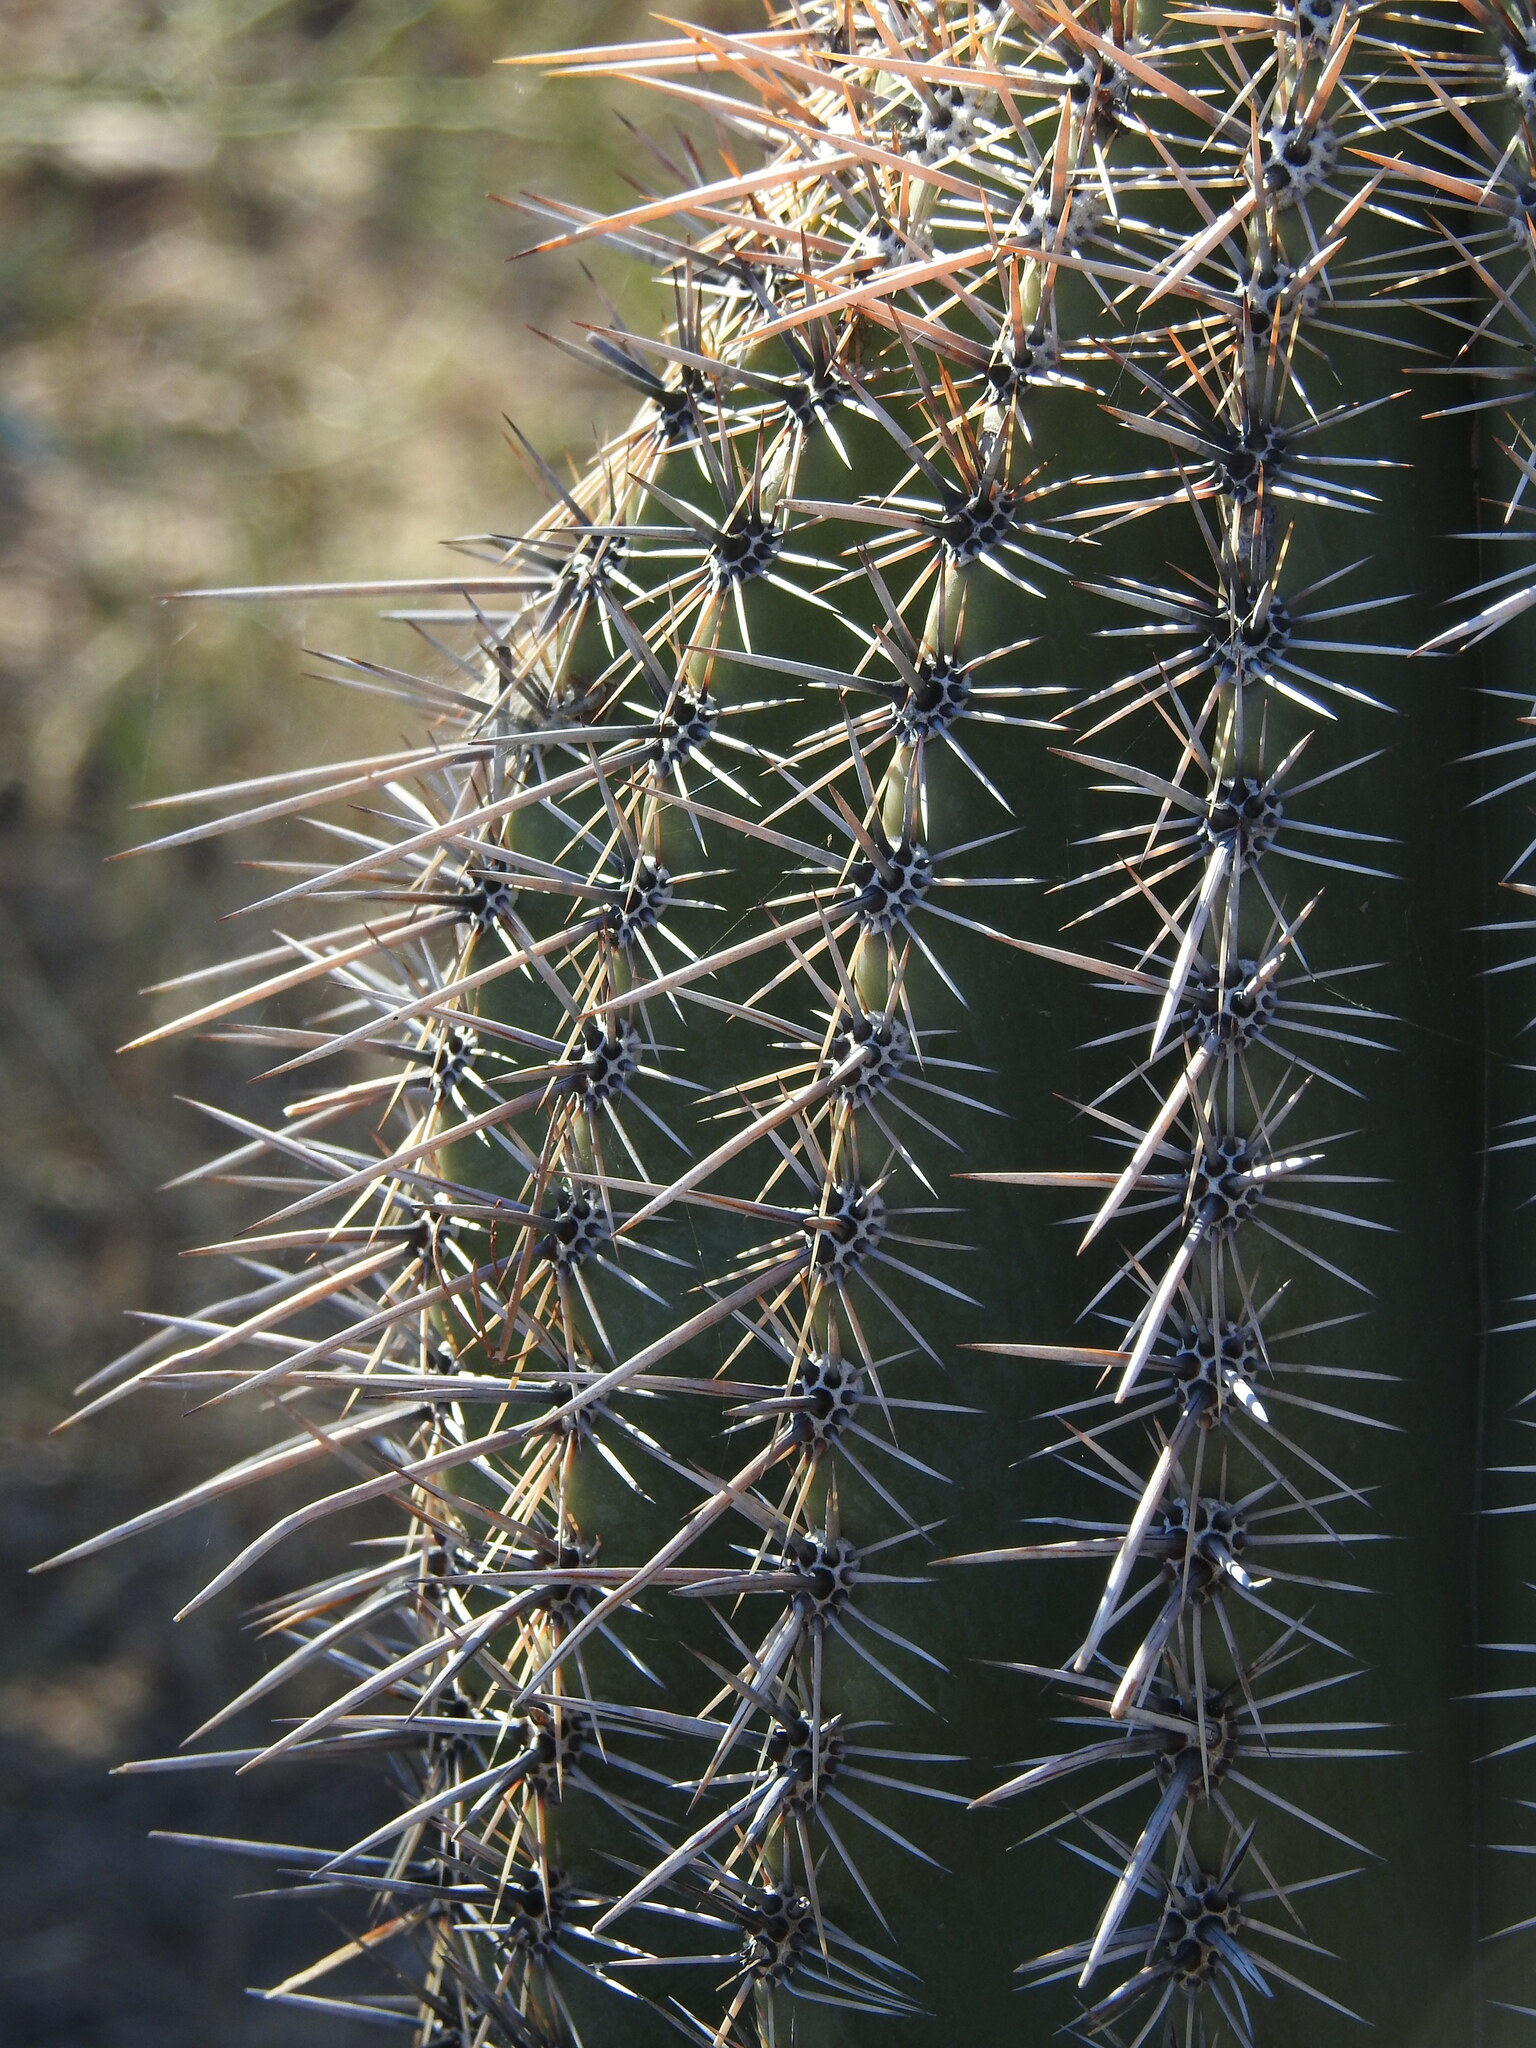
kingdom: Plantae
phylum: Tracheophyta
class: Magnoliopsida
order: Caryophyllales
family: Cactaceae
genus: Carnegiea
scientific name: Carnegiea gigantea
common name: Saguaro
